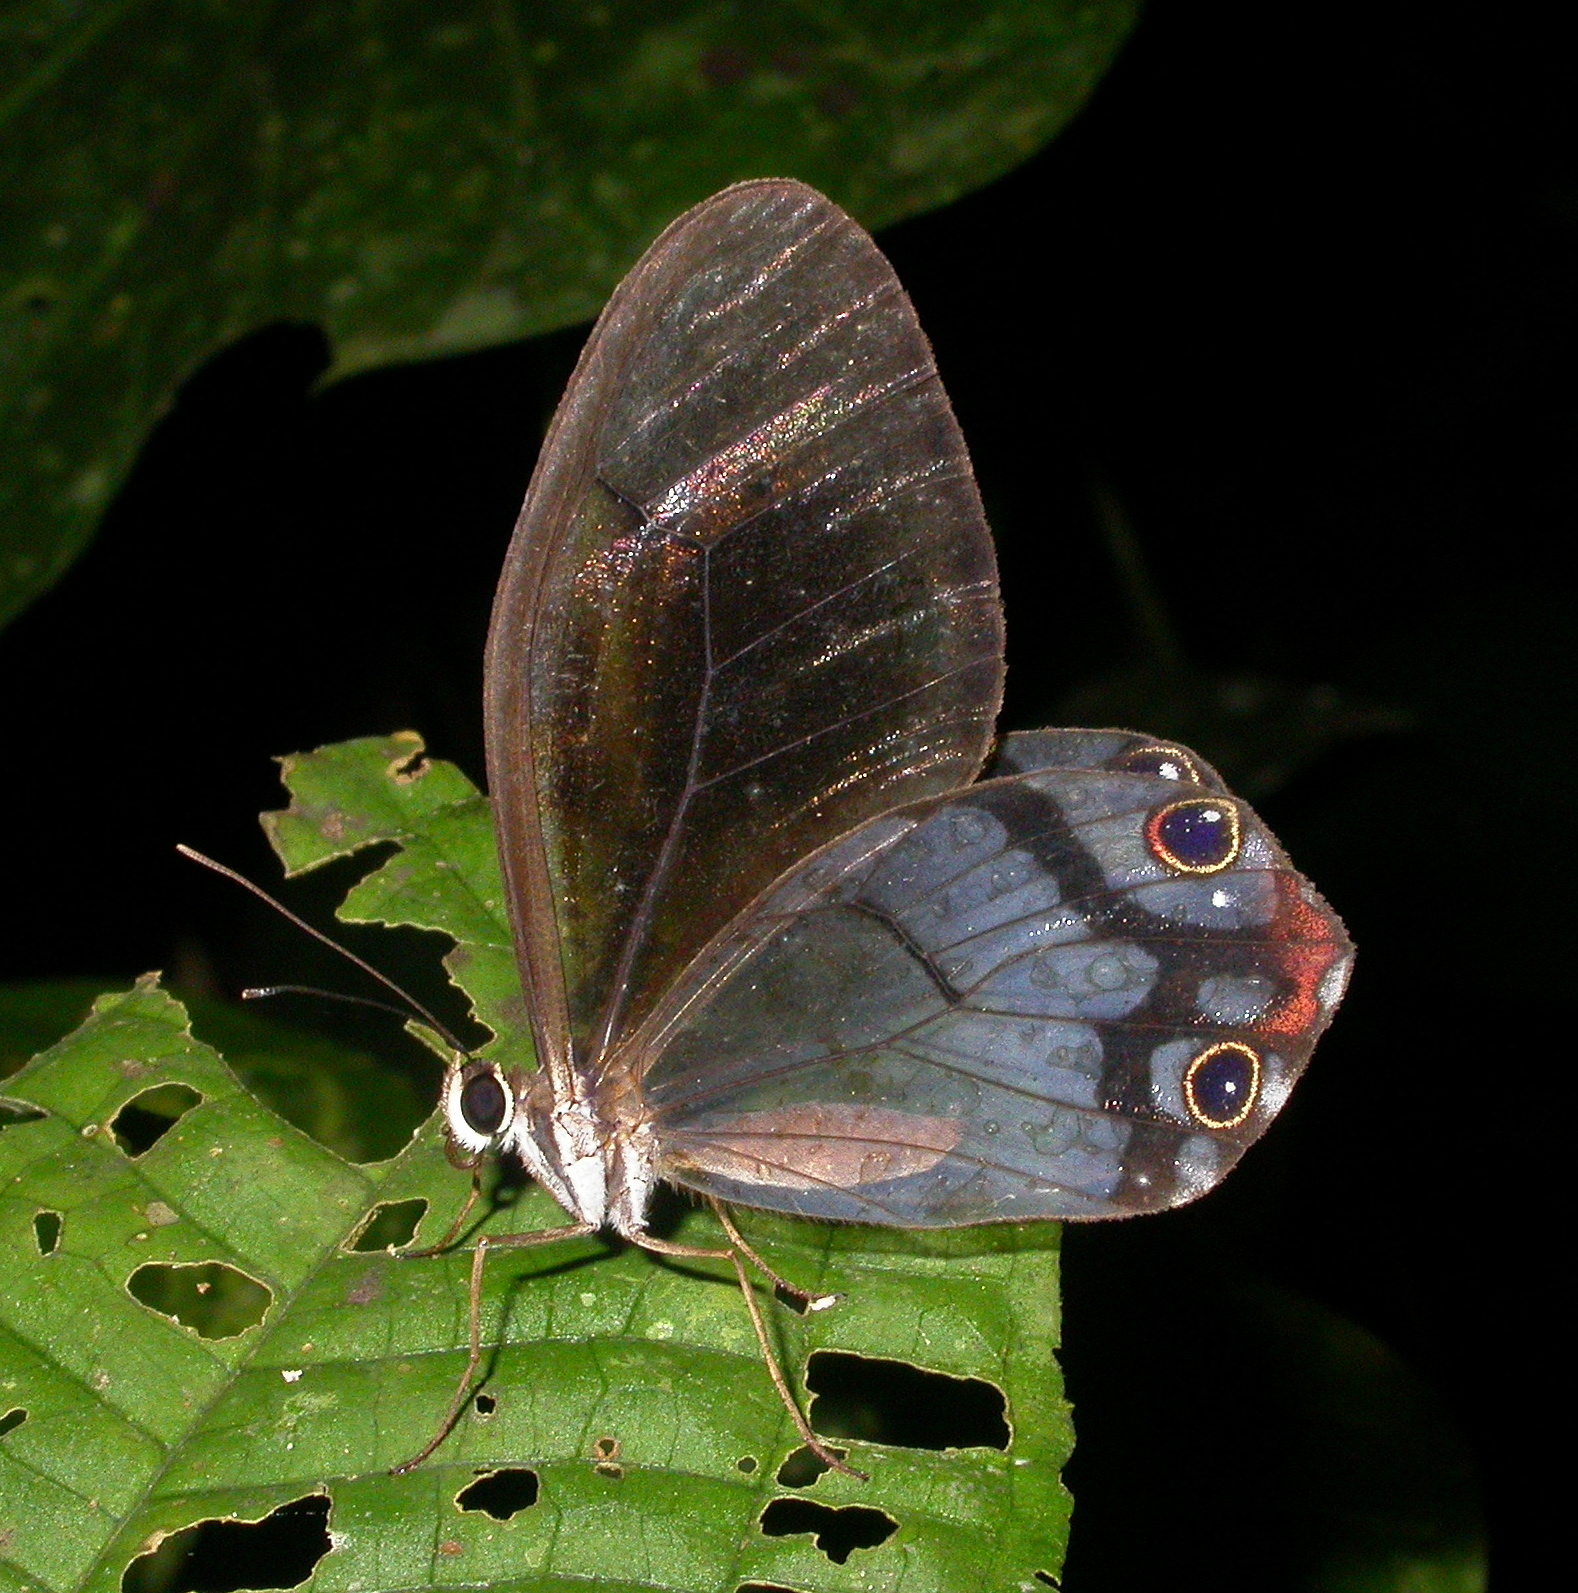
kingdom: Animalia
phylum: Arthropoda
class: Insecta
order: Lepidoptera
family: Nymphalidae
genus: Haetera
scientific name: Haetera macleannania
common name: Reddish clearwing-satyr
